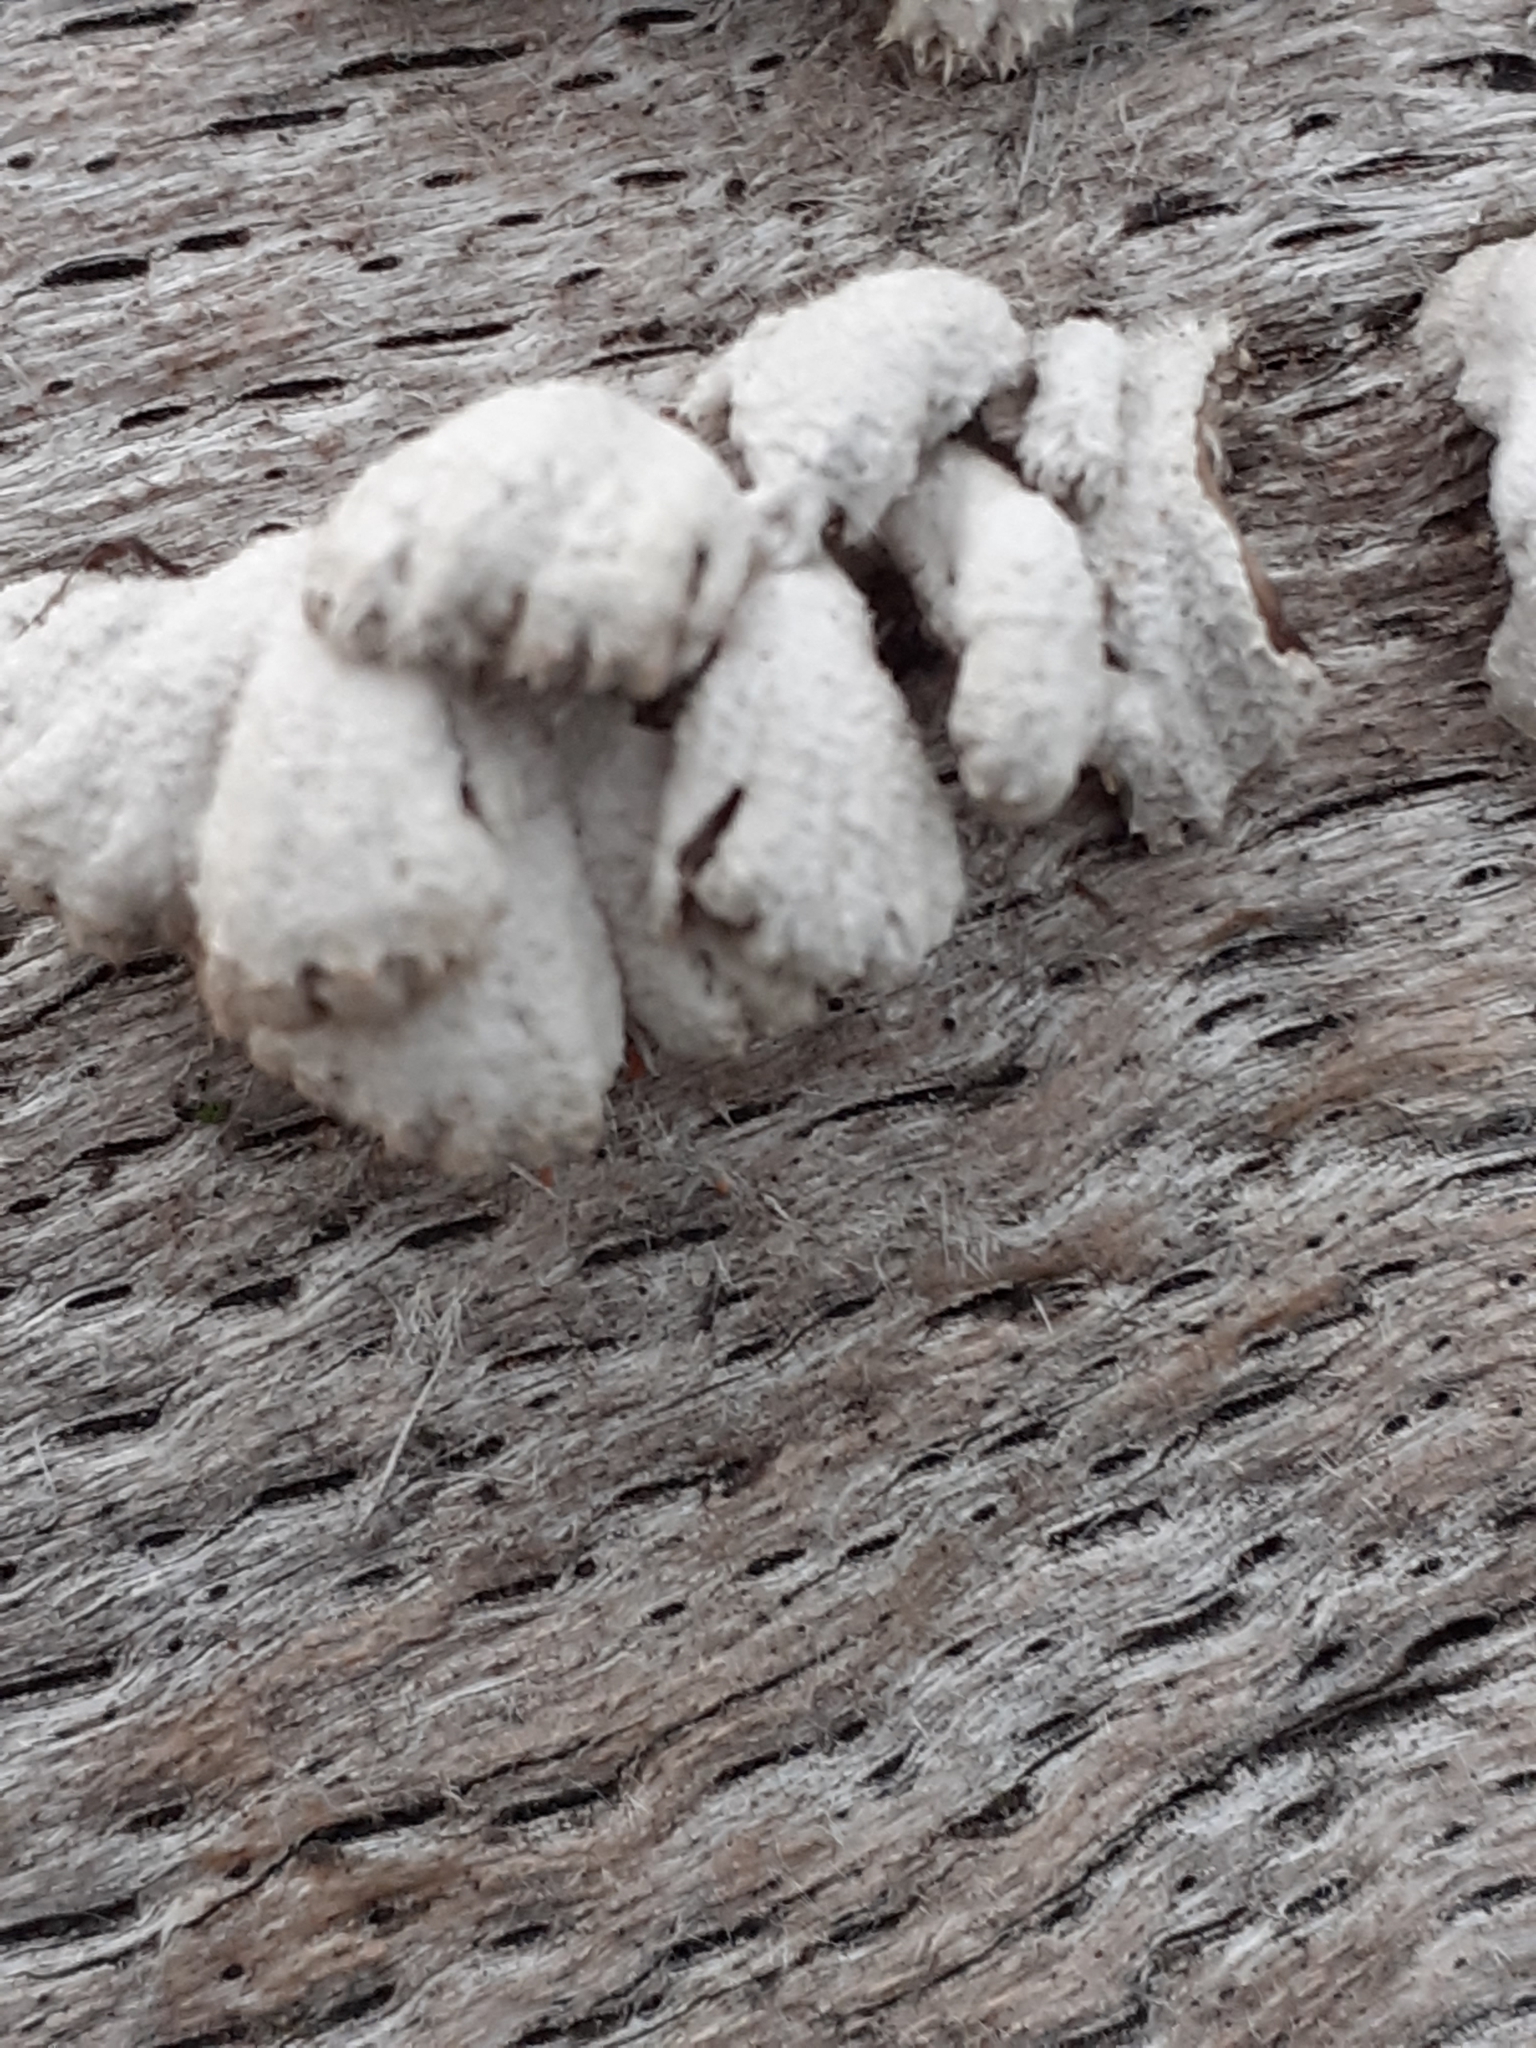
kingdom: Fungi
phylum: Basidiomycota
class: Agaricomycetes
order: Agaricales
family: Schizophyllaceae
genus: Schizophyllum
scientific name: Schizophyllum commune
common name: Common porecrust
